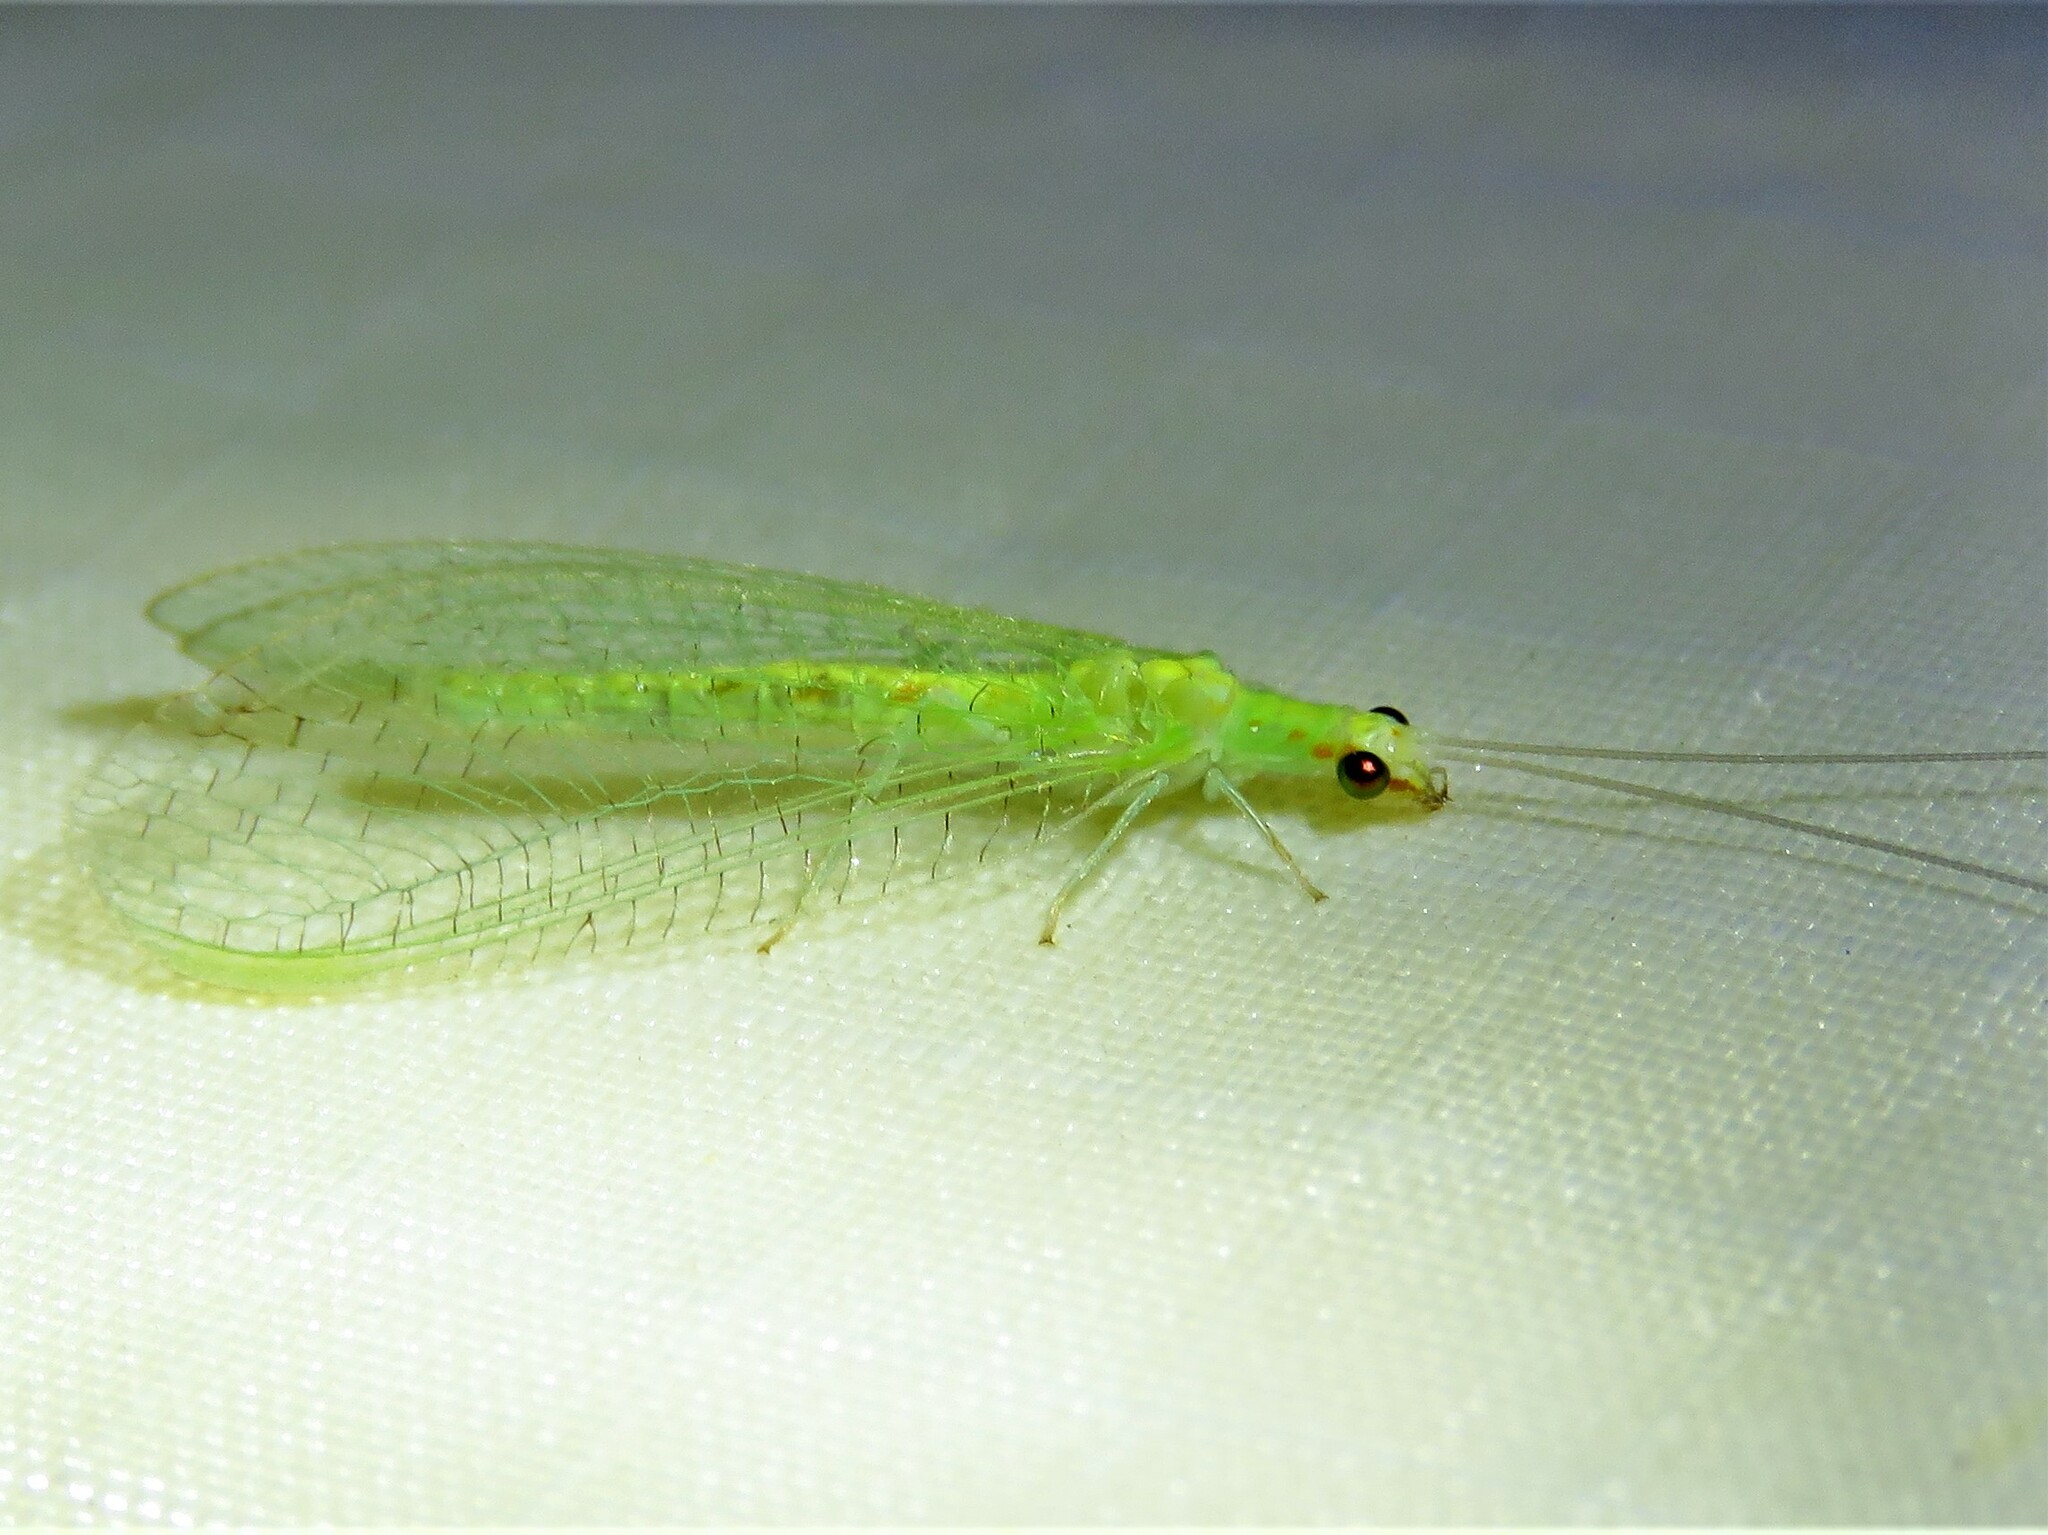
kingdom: Animalia
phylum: Arthropoda
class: Insecta
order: Neuroptera
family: Chrysopidae
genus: Chrysopa
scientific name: Chrysopa quadripunctata
